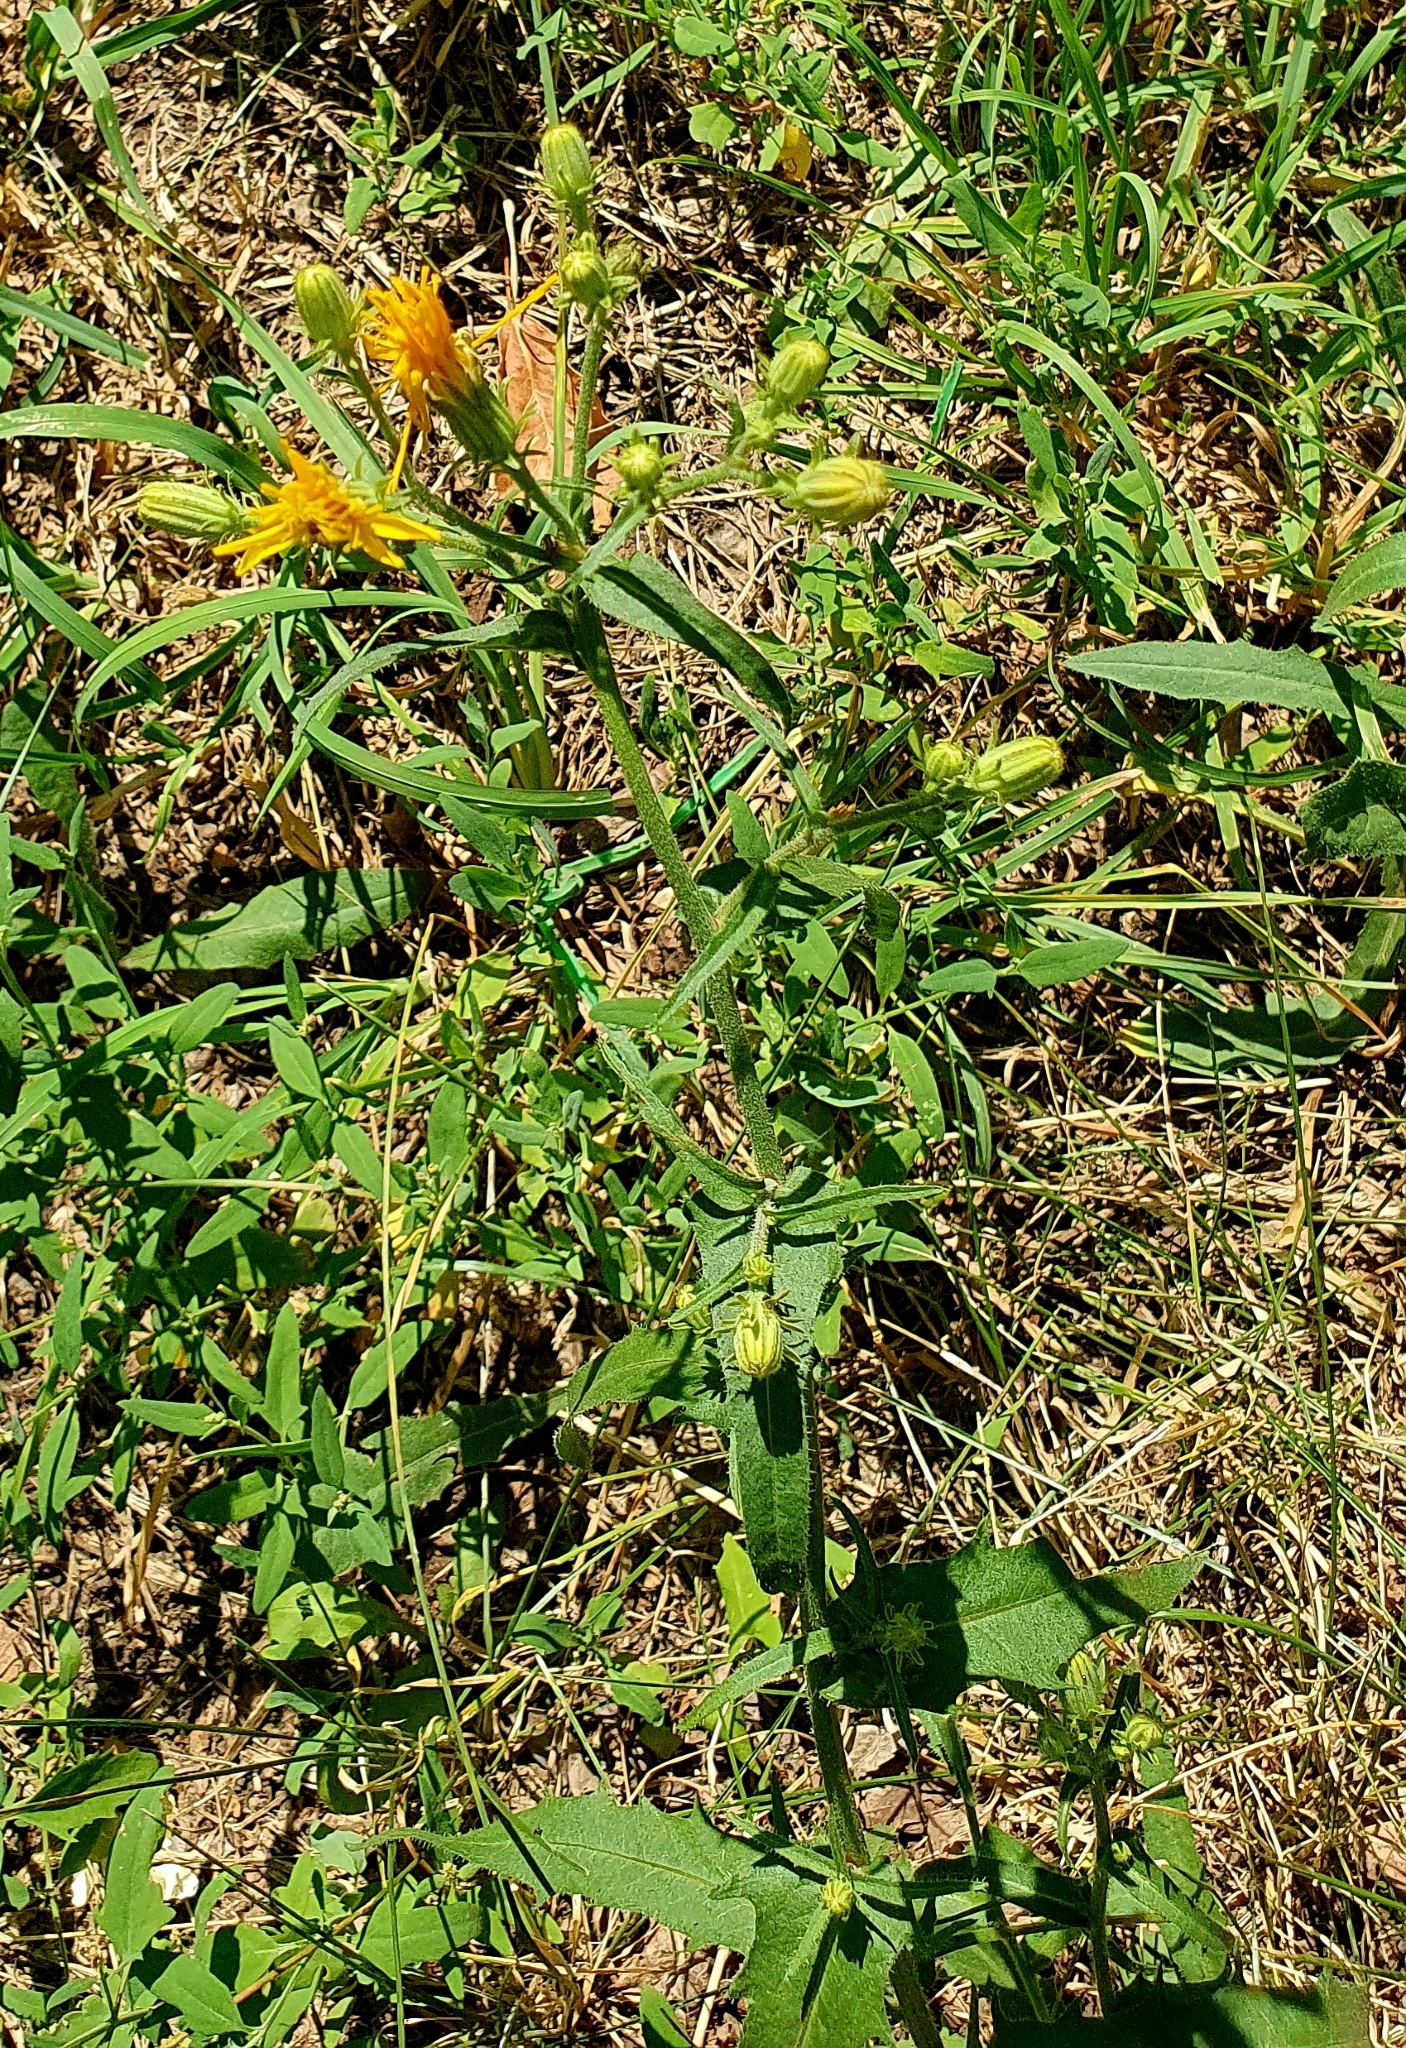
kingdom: Plantae
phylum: Tracheophyta
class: Magnoliopsida
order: Asterales
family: Asteraceae
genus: Picris
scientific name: Picris hieracioides
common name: Hawkweed oxtongue
